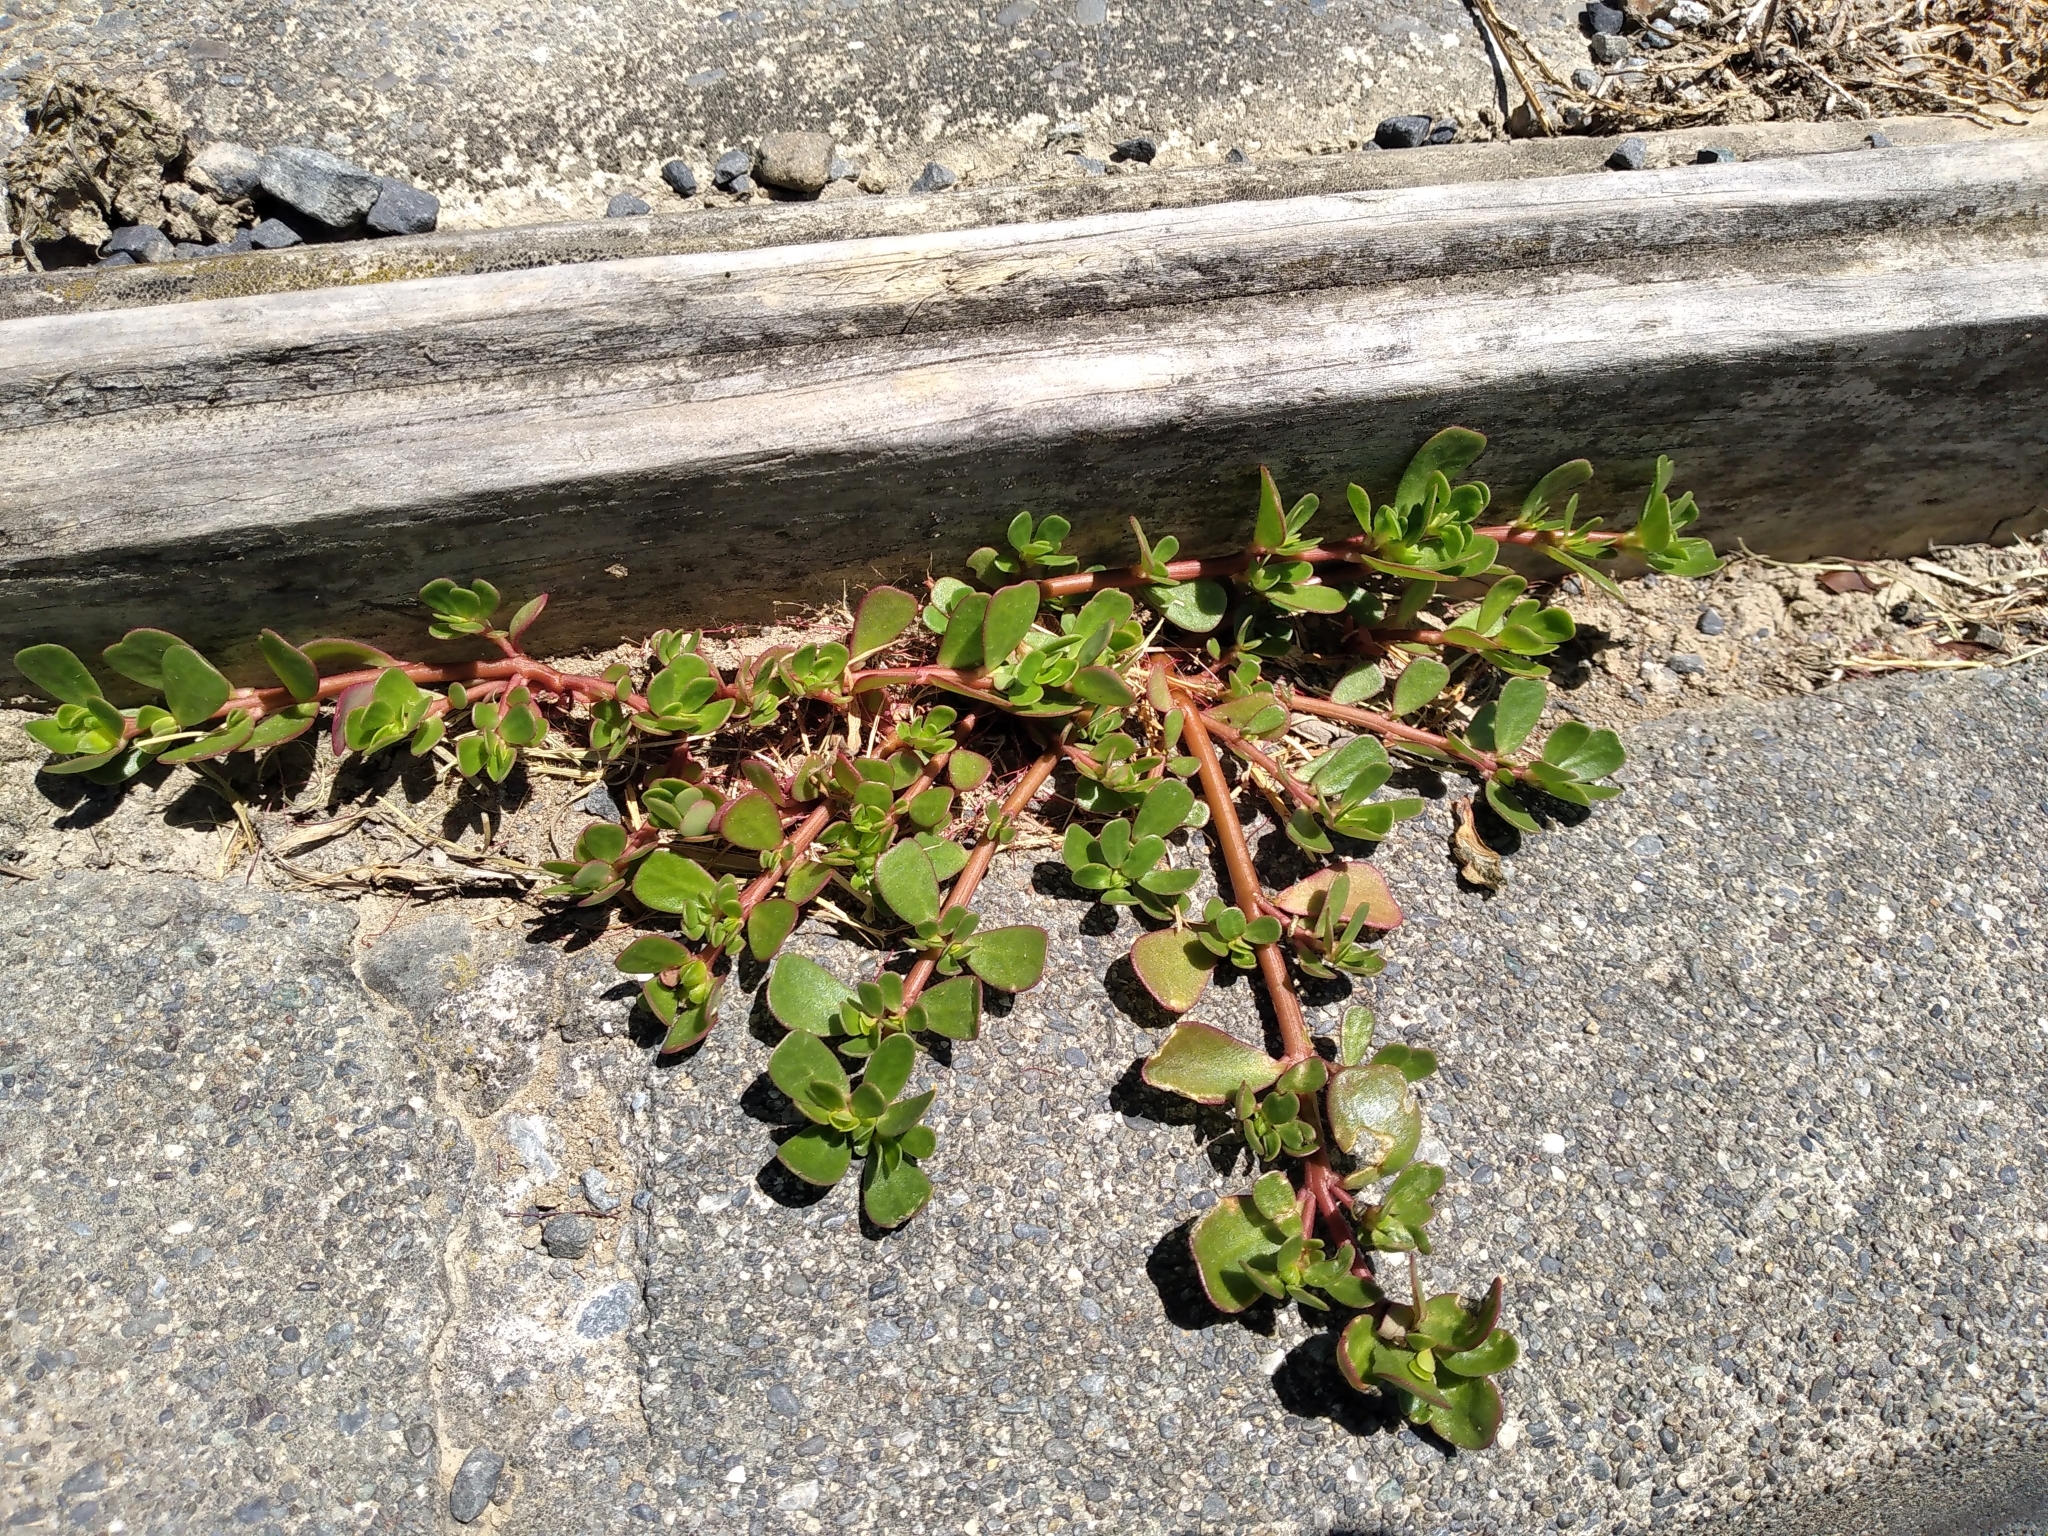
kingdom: Plantae
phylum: Tracheophyta
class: Magnoliopsida
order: Caryophyllales
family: Portulacaceae
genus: Portulaca
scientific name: Portulaca oleracea
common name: Common purslane
